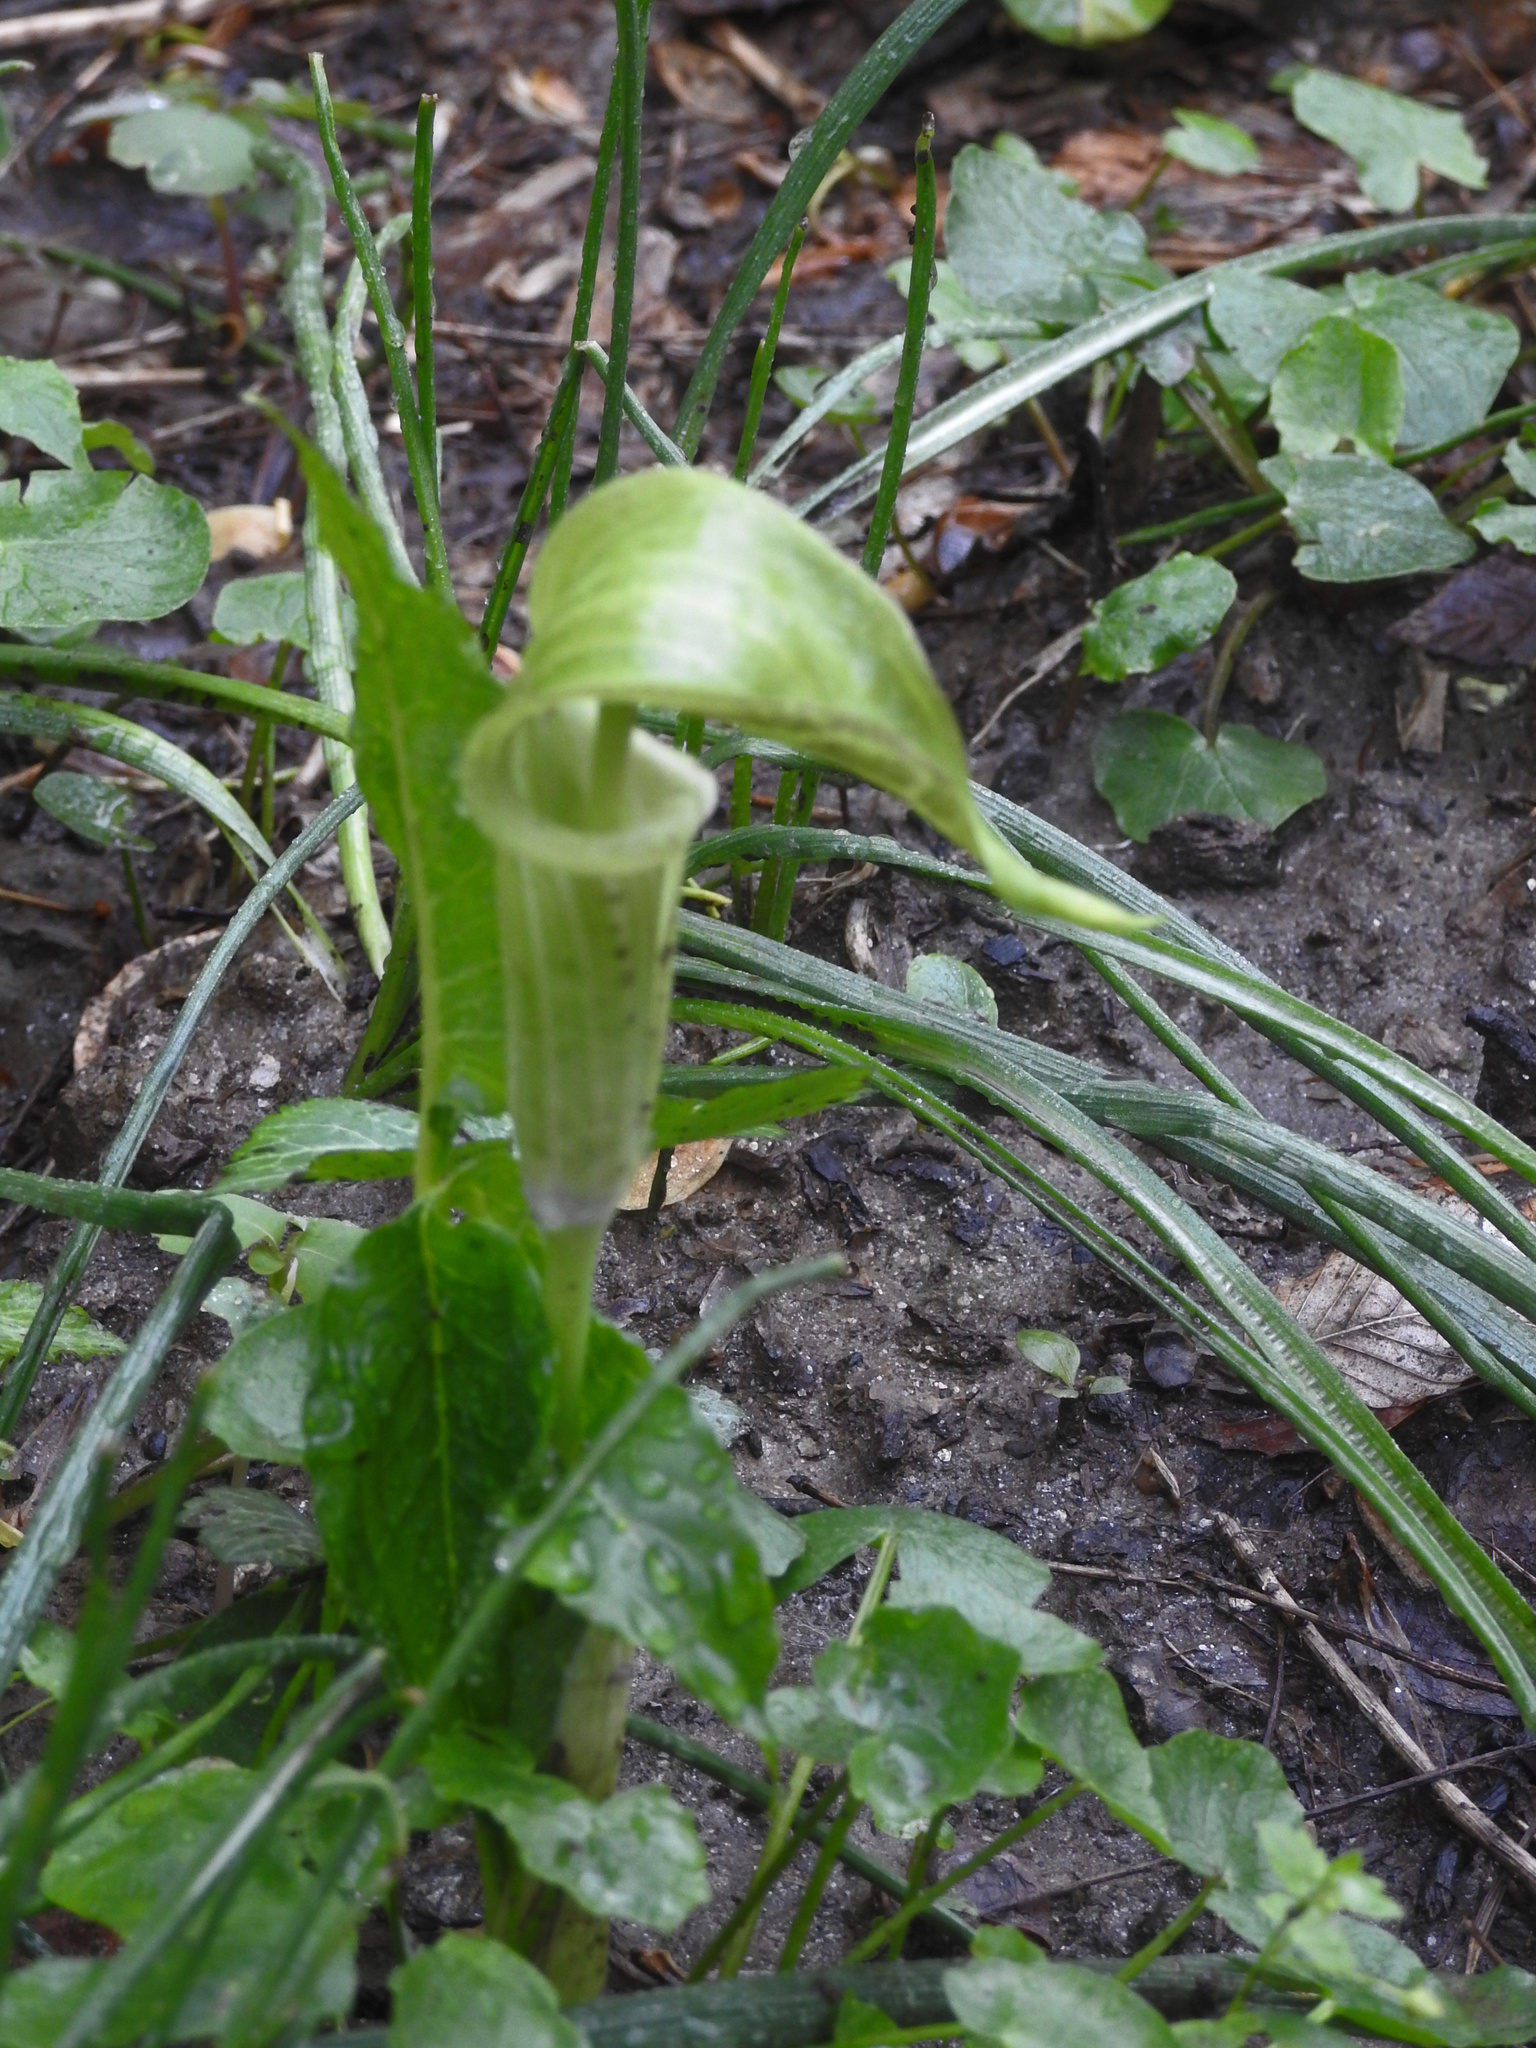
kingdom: Plantae
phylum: Tracheophyta
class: Liliopsida
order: Alismatales
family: Araceae
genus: Arisaema
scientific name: Arisaema triphyllum
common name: Jack-in-the-pulpit
